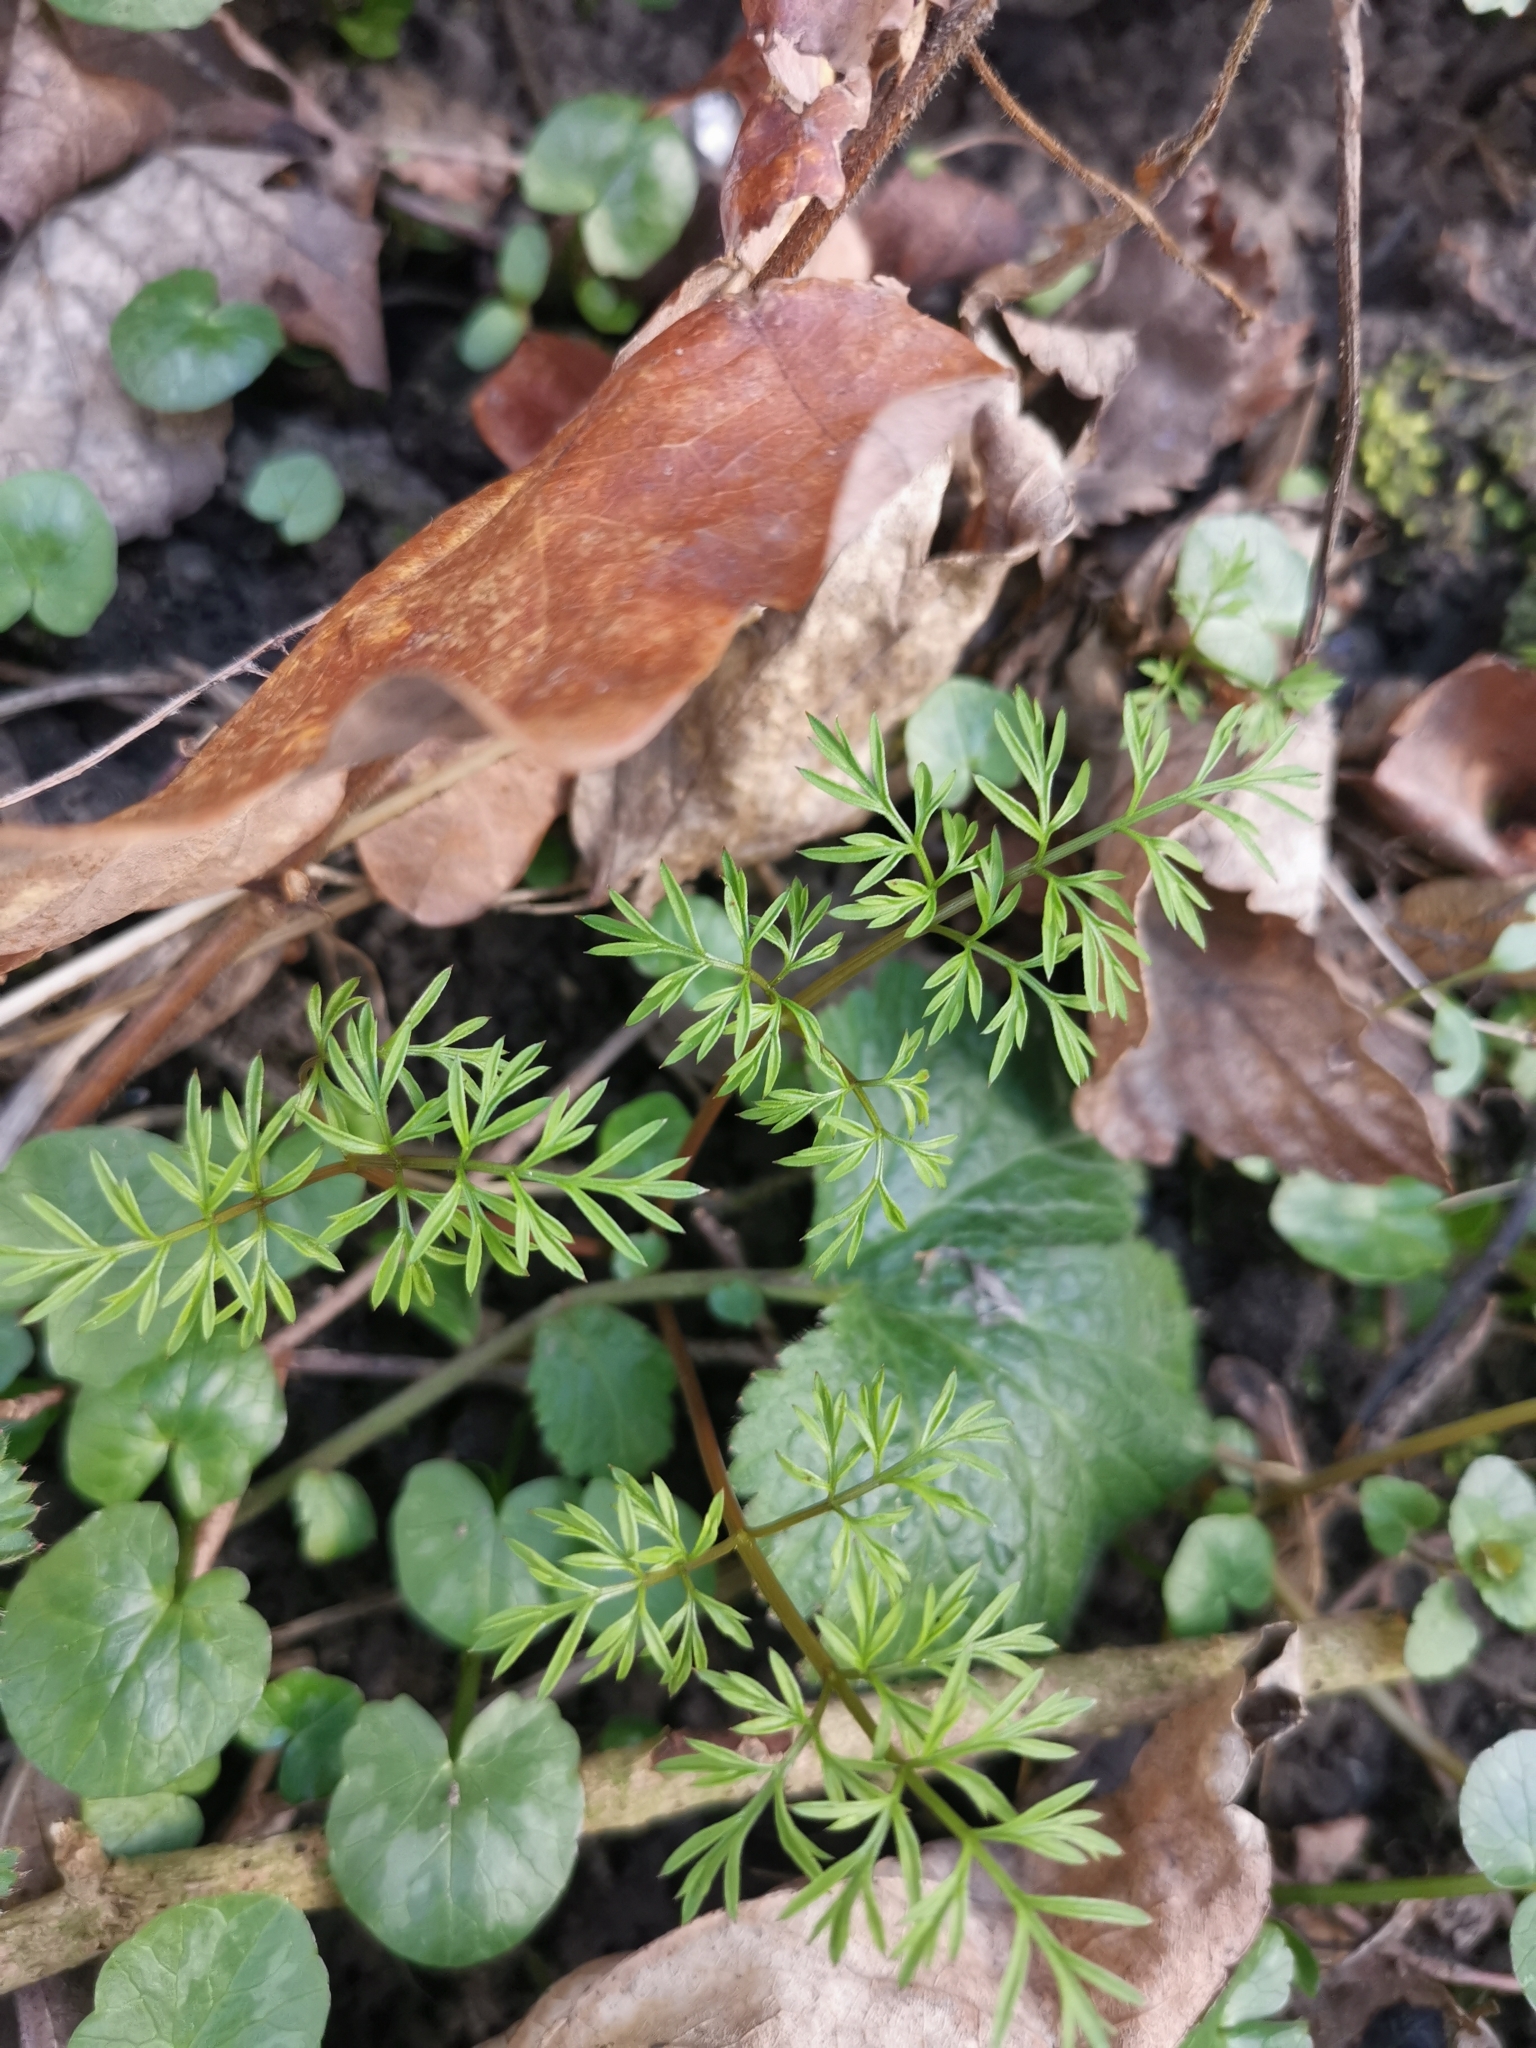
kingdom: Plantae
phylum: Tracheophyta
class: Magnoliopsida
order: Apiales
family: Apiaceae
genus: Conopodium
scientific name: Conopodium majus
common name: Pignut
